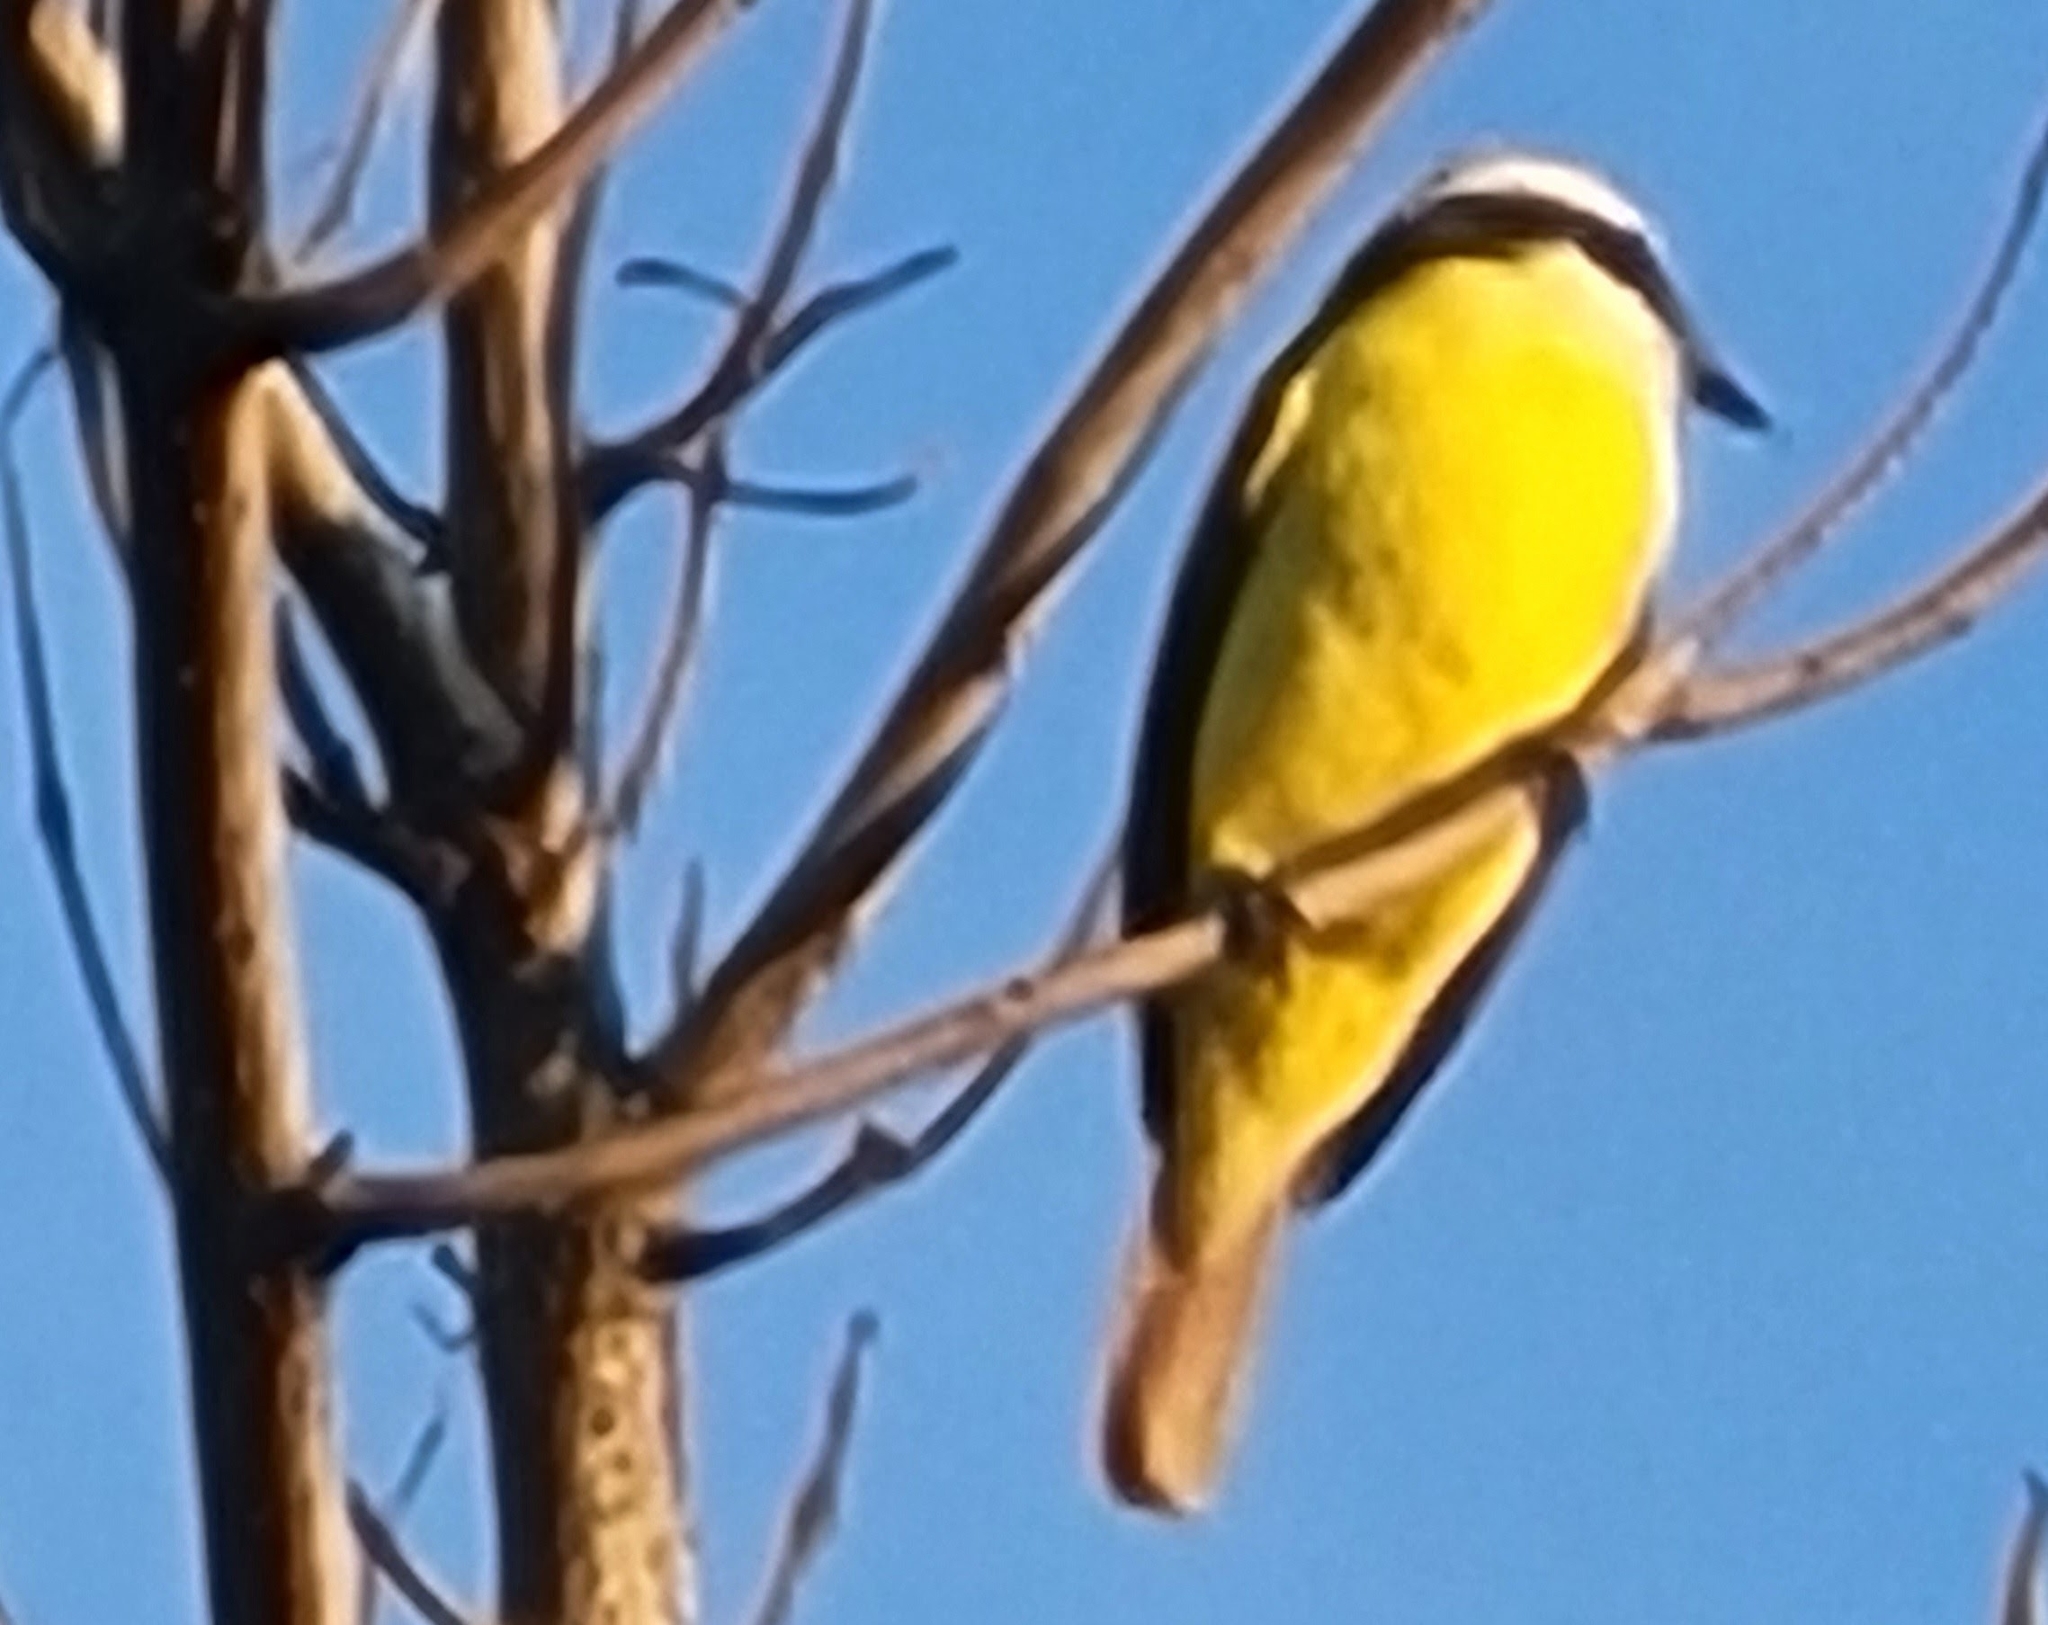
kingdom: Animalia
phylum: Chordata
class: Aves
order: Passeriformes
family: Tyrannidae
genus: Myiozetetes
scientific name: Myiozetetes similis
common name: Social flycatcher
